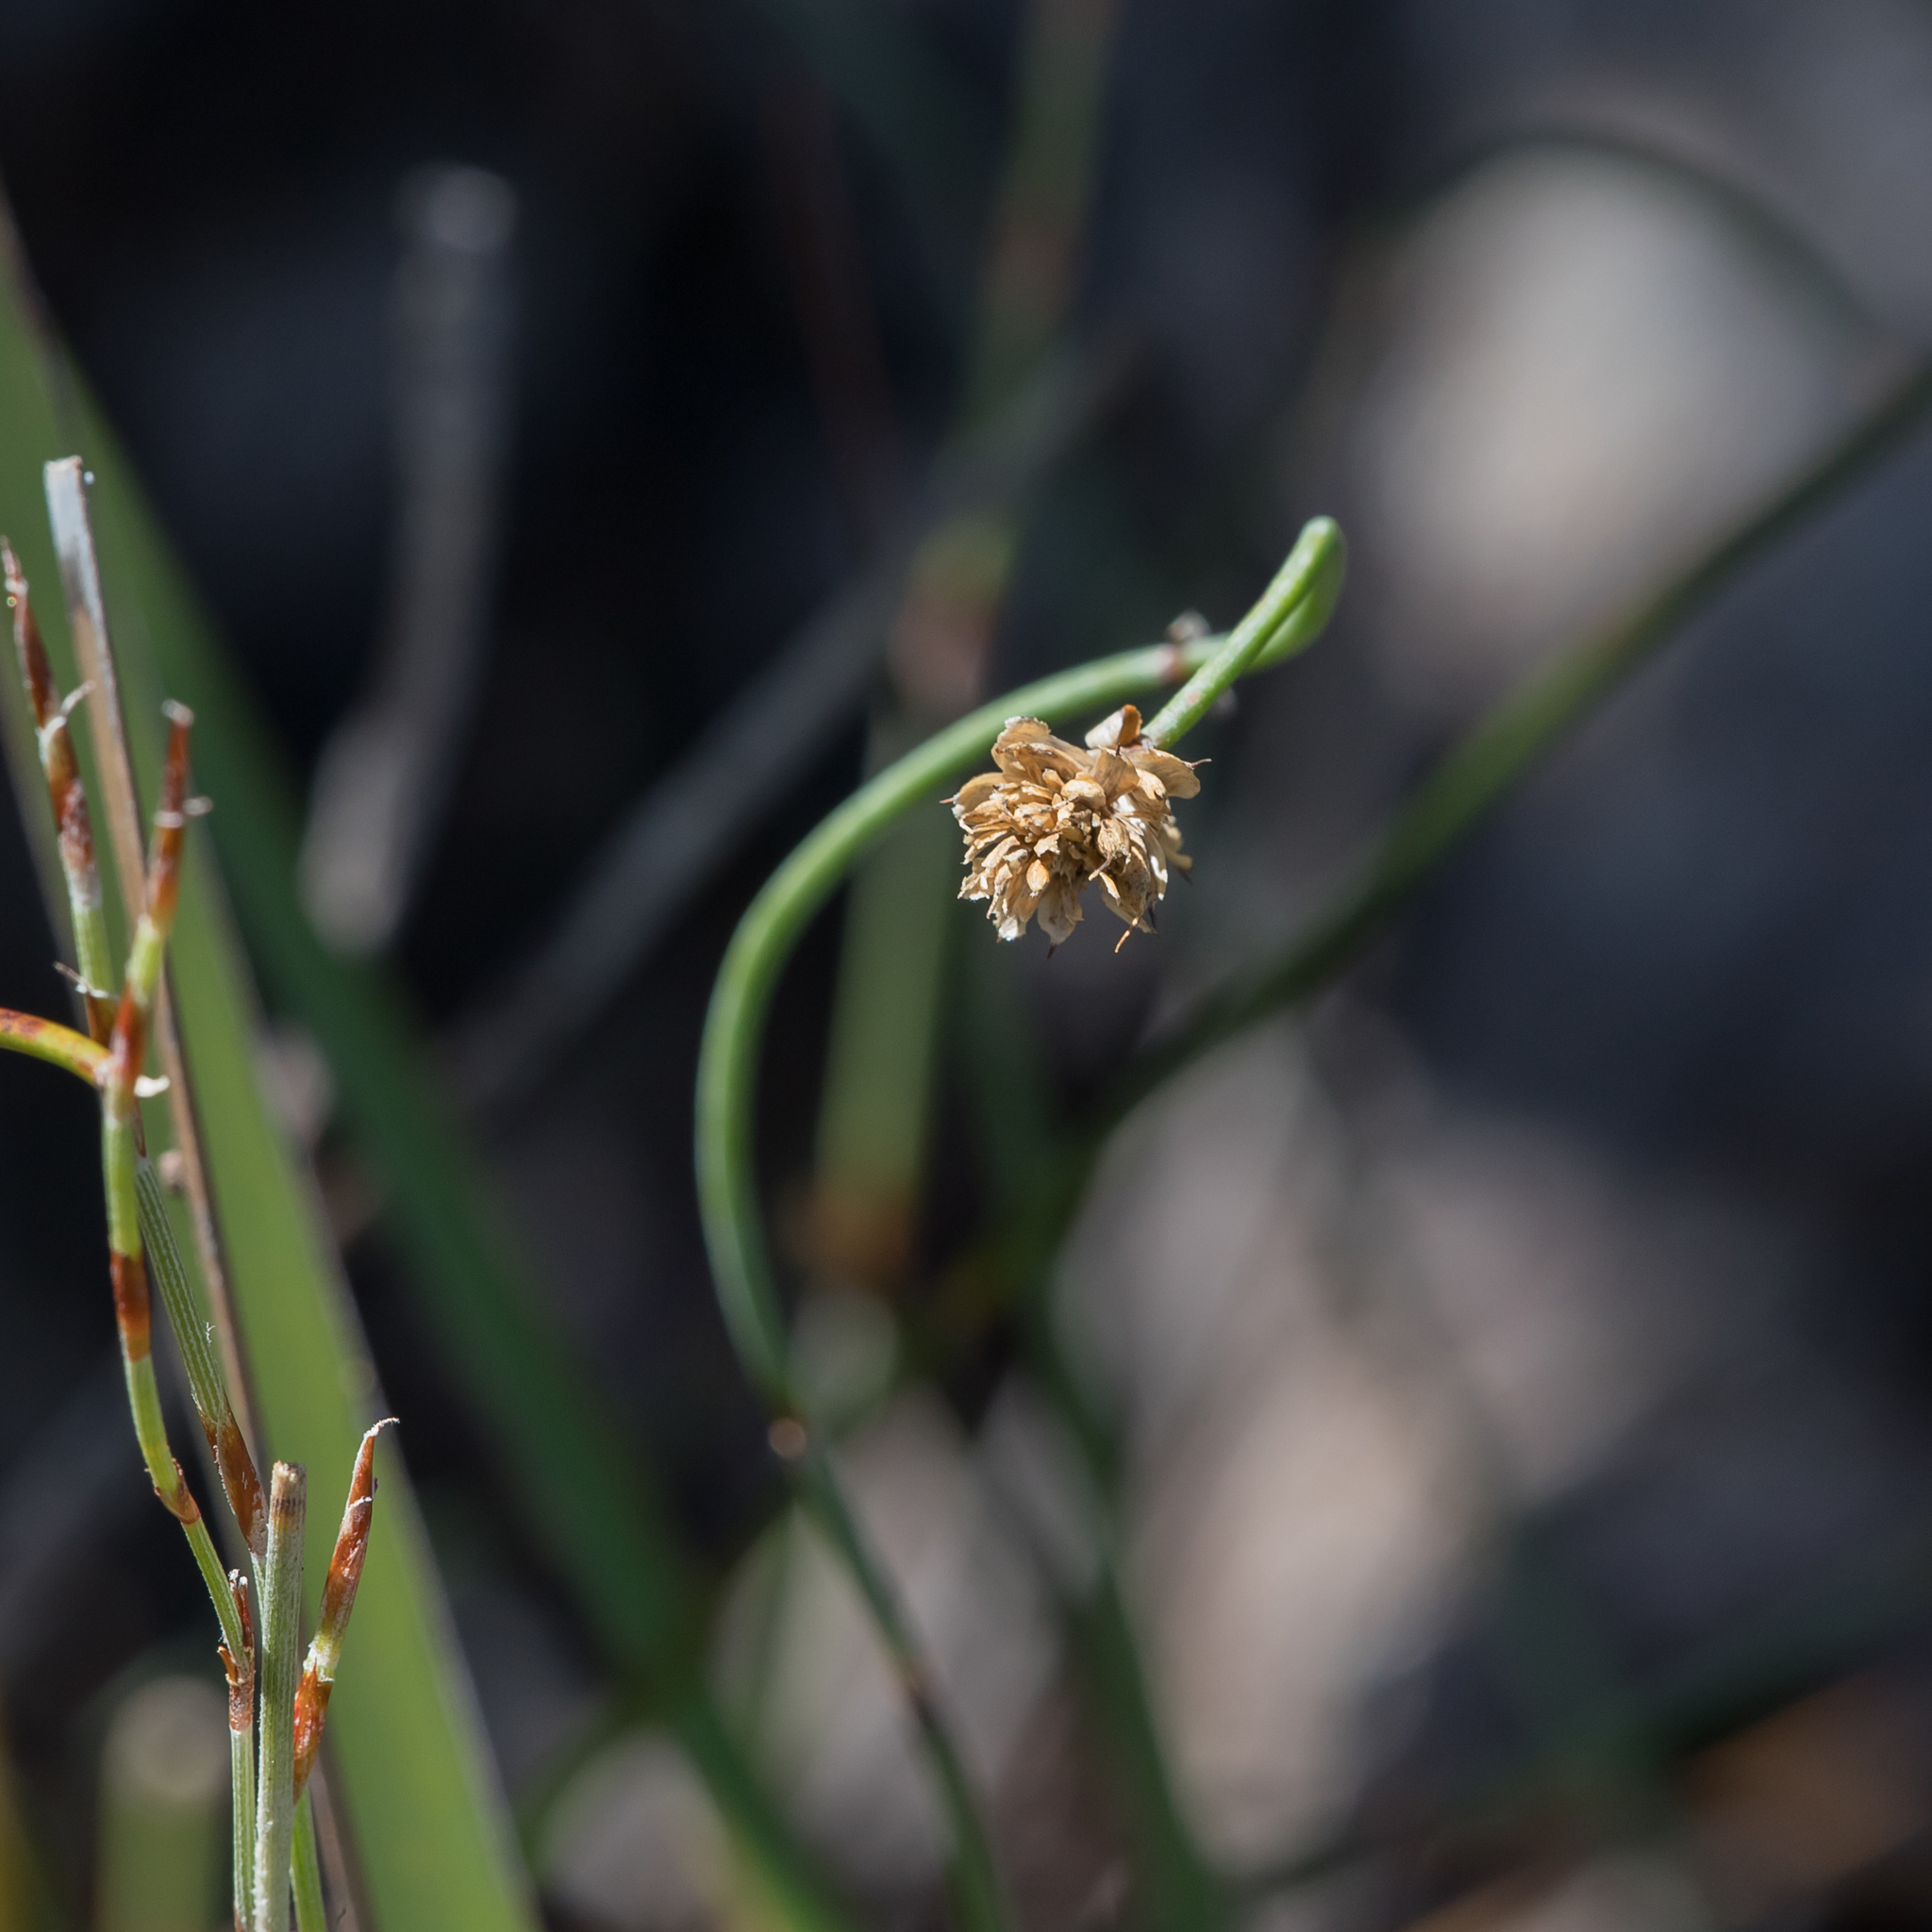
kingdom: Plantae
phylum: Tracheophyta
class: Liliopsida
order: Poales
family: Restionaceae
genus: Lepidobolus
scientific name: Lepidobolus drapetocoleus
